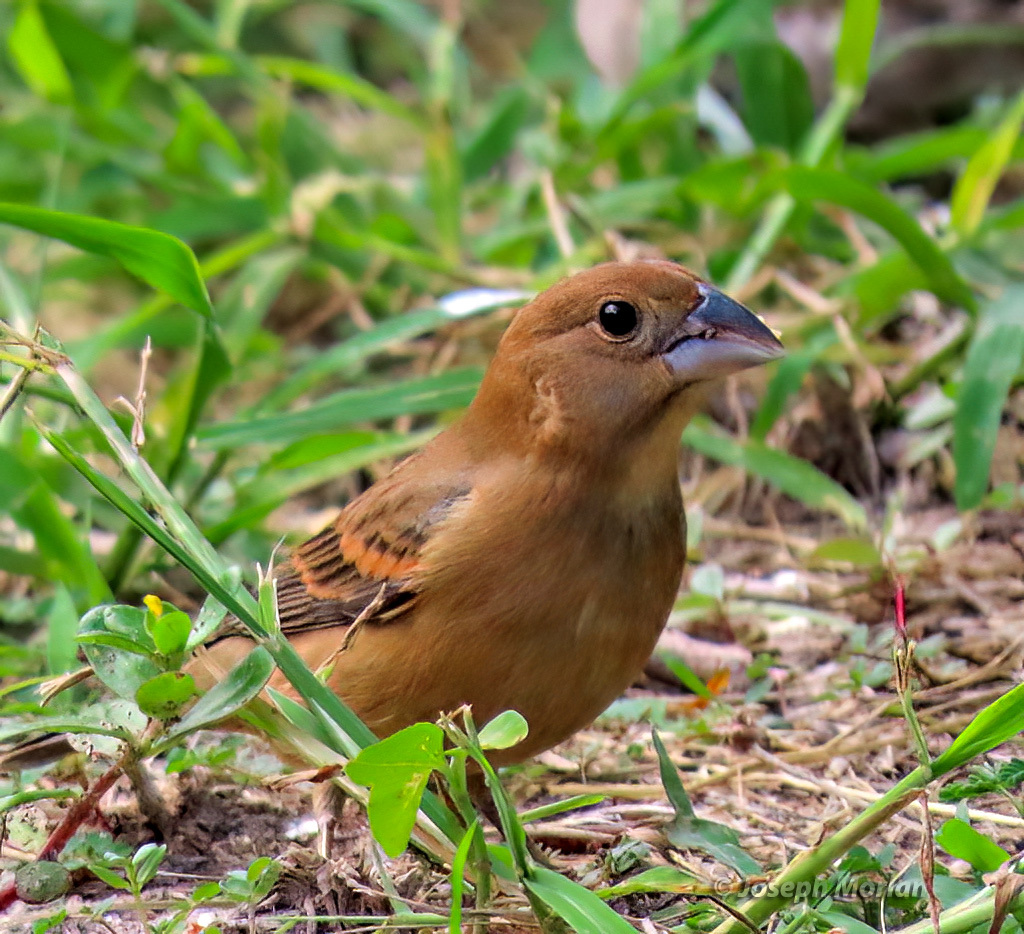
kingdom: Animalia
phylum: Chordata
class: Aves
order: Passeriformes
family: Cardinalidae
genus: Passerina
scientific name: Passerina caerulea
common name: Blue grosbeak
